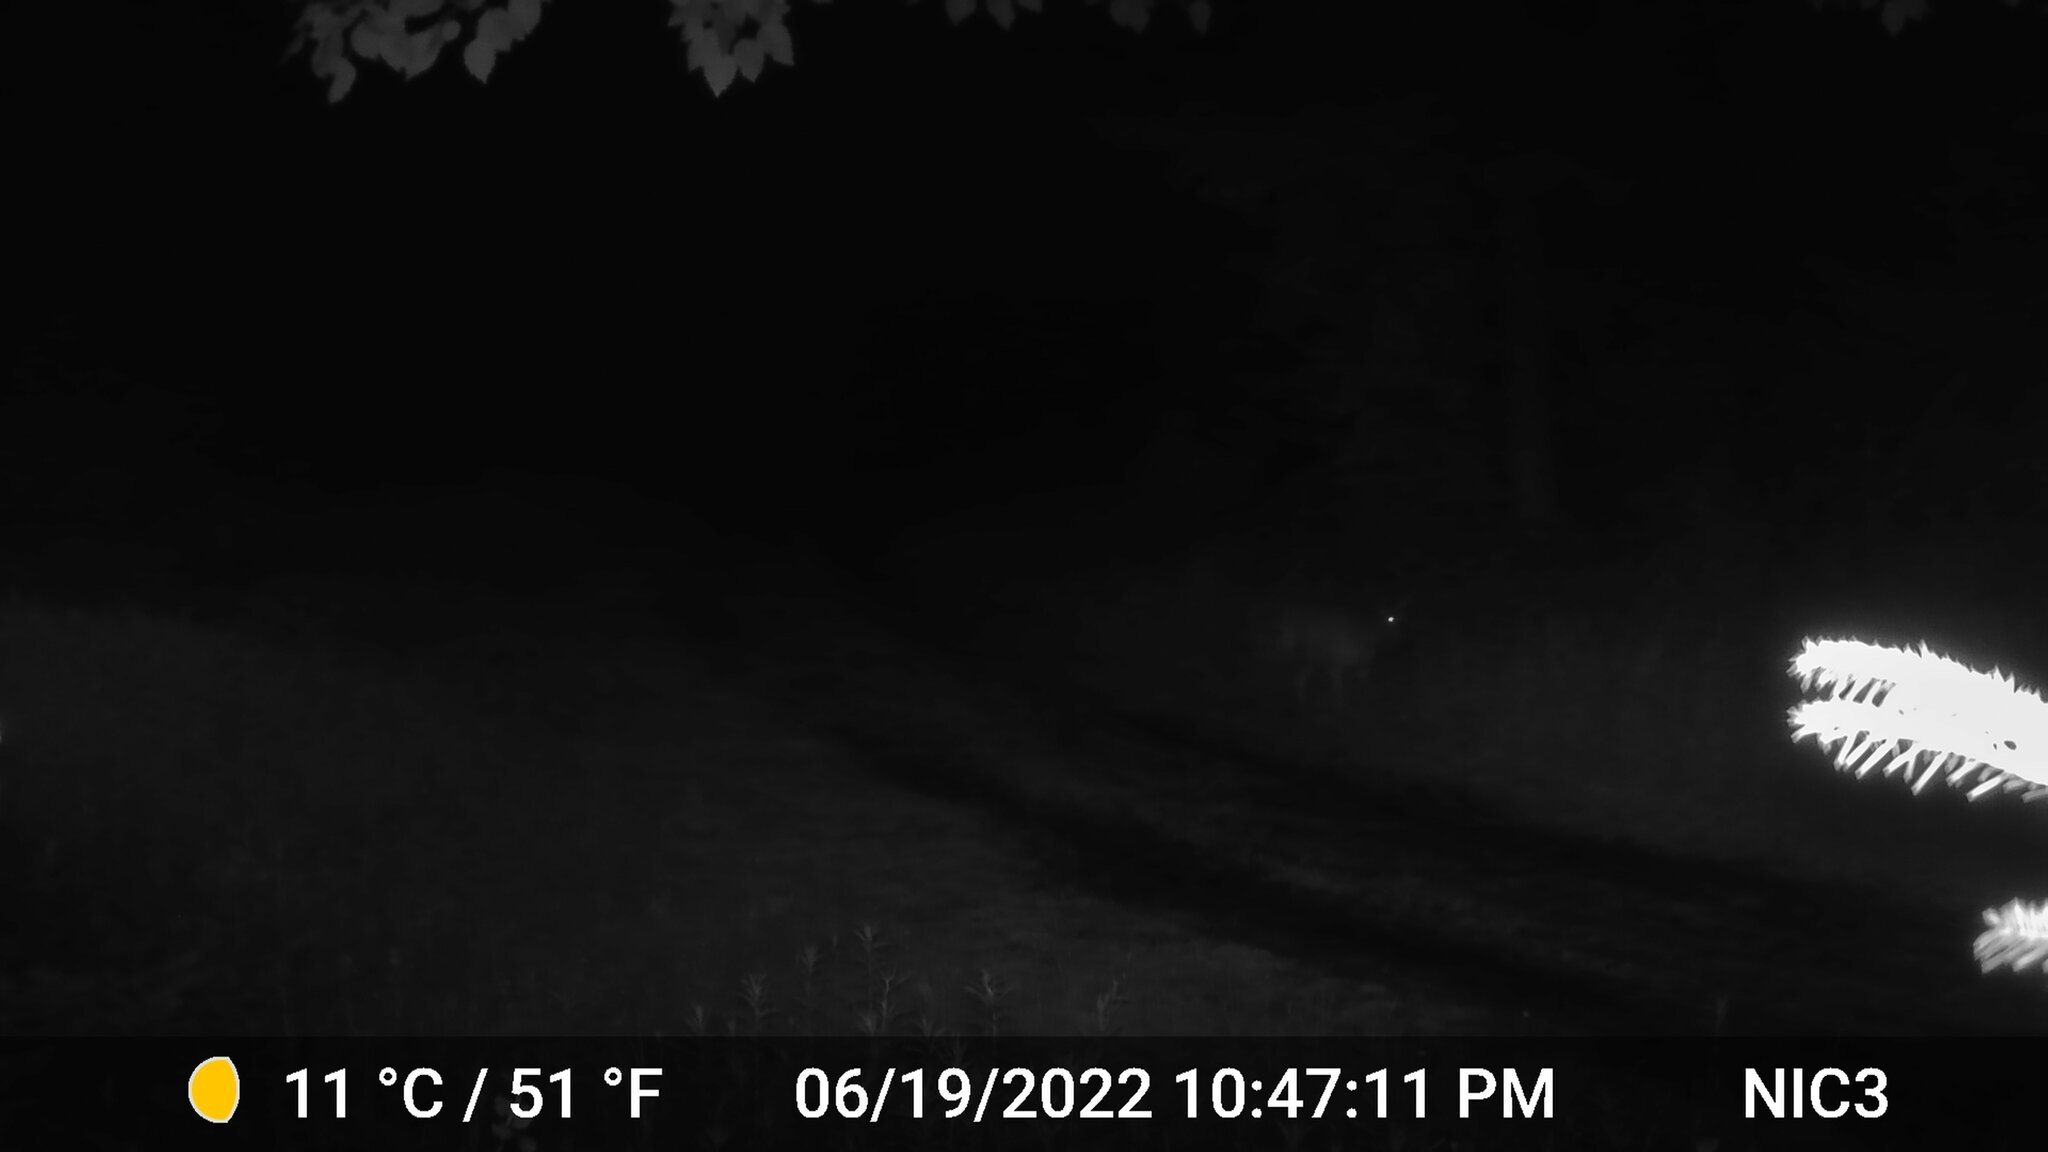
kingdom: Animalia
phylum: Chordata
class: Mammalia
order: Artiodactyla
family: Cervidae
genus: Odocoileus
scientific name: Odocoileus virginianus
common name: White-tailed deer
